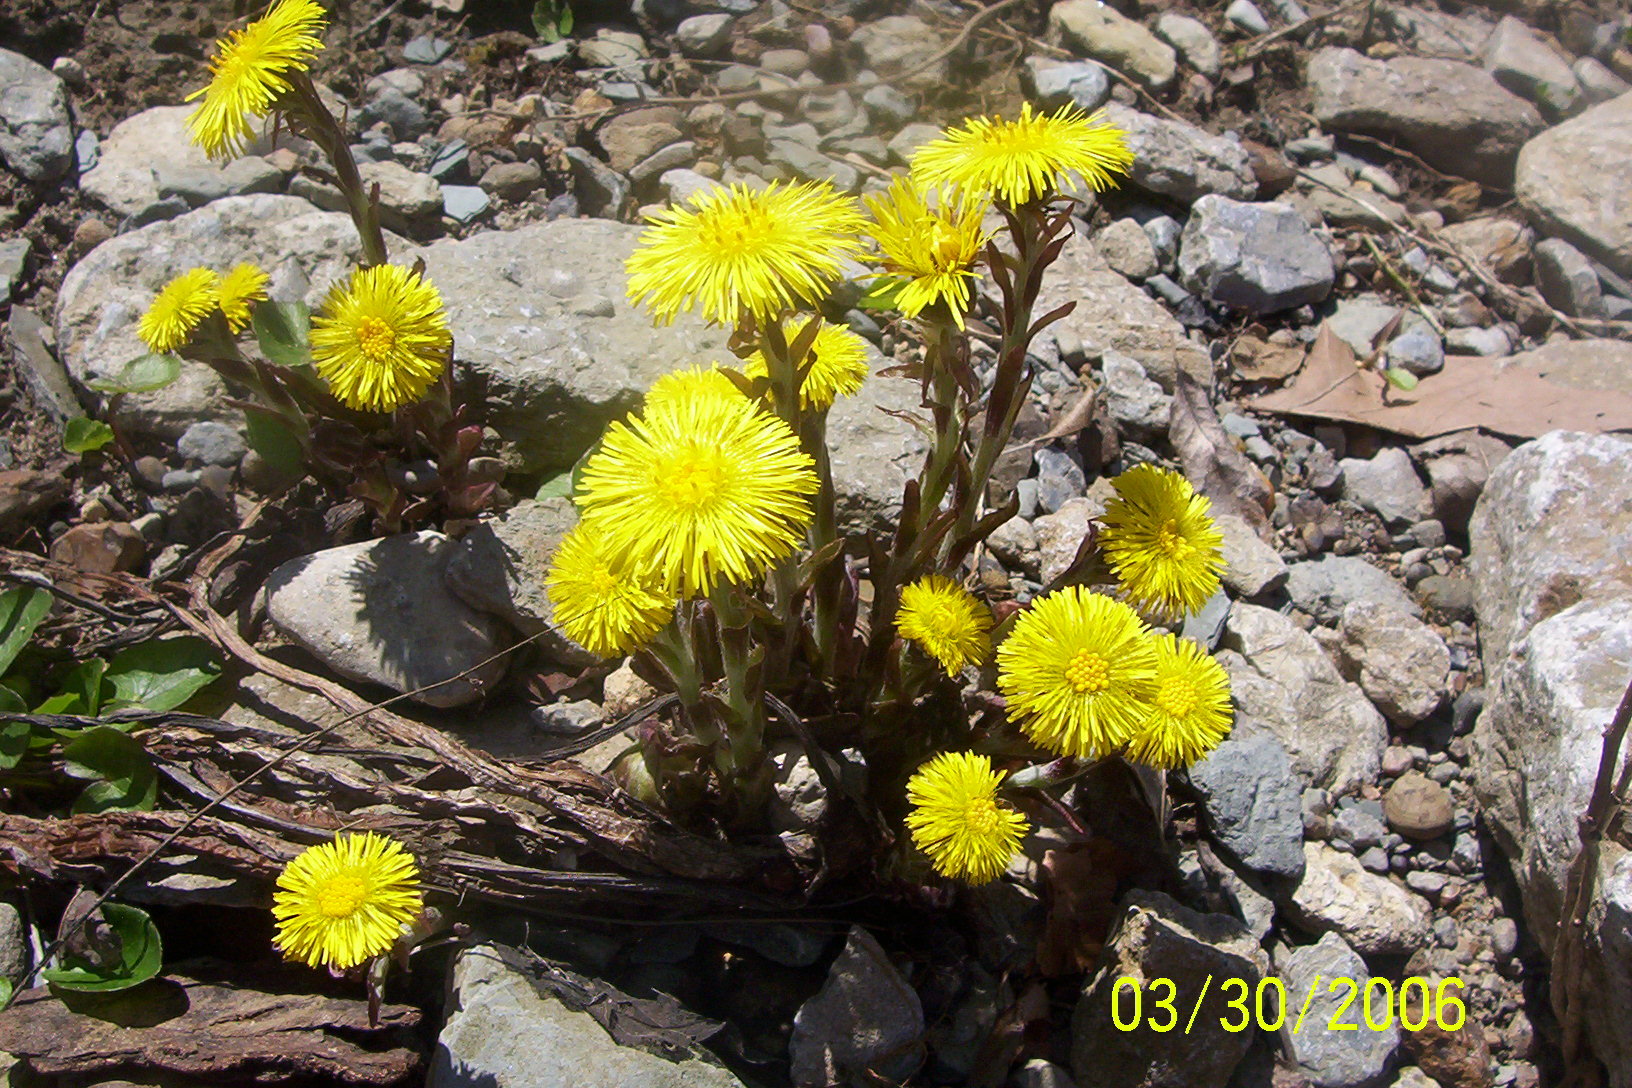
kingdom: Plantae
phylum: Tracheophyta
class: Magnoliopsida
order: Asterales
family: Asteraceae
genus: Tussilago
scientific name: Tussilago farfara
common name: Coltsfoot
